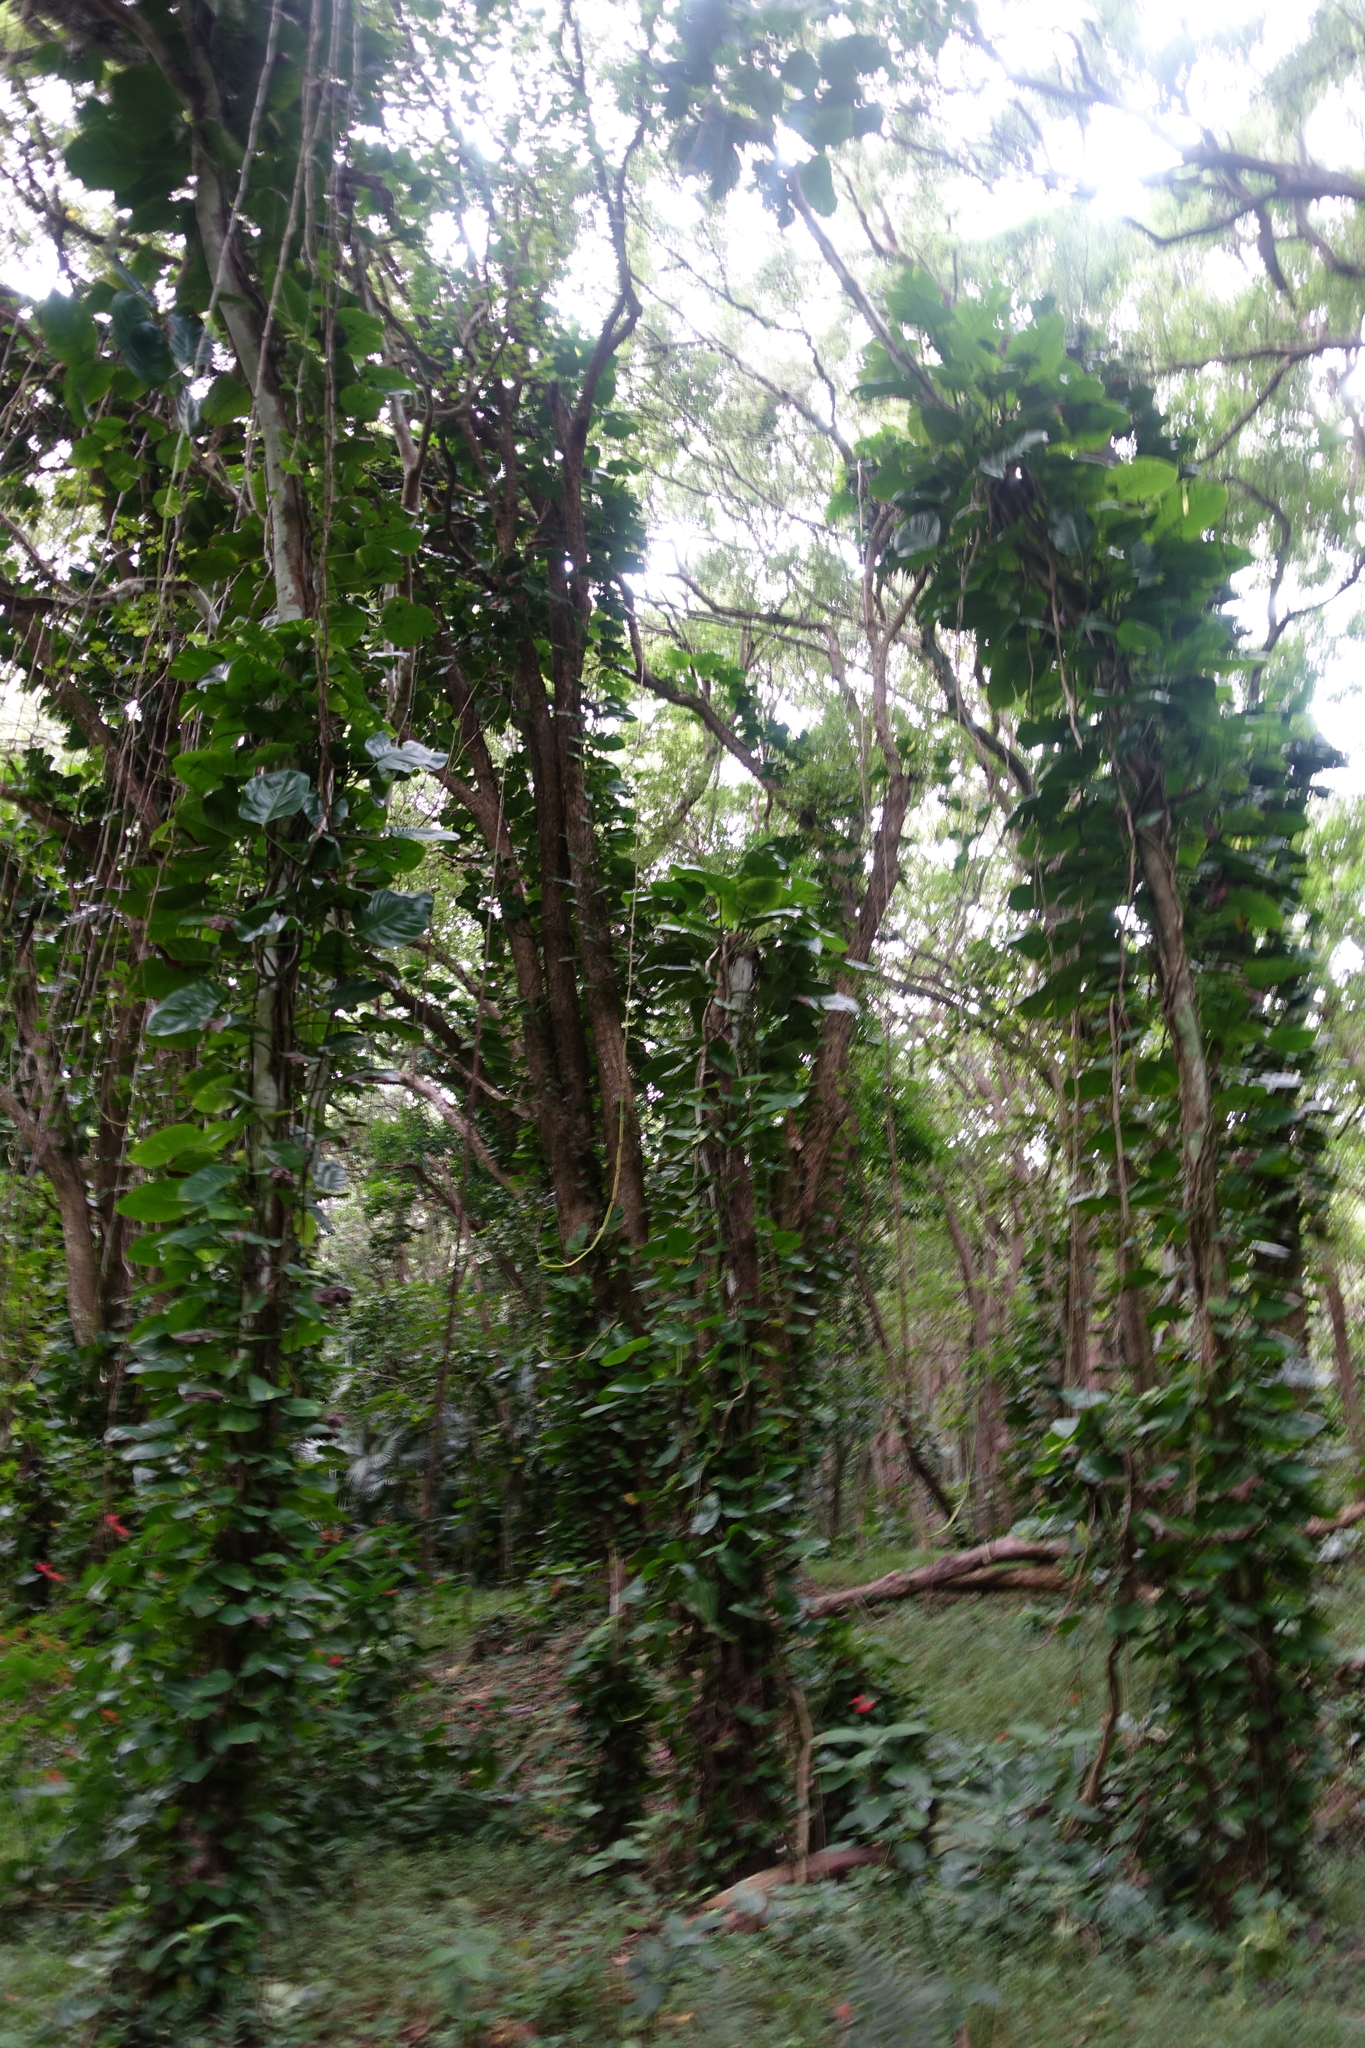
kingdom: Plantae
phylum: Tracheophyta
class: Liliopsida
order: Alismatales
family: Araceae
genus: Epipremnum
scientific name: Epipremnum aureum
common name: Golden hunter's-robe
